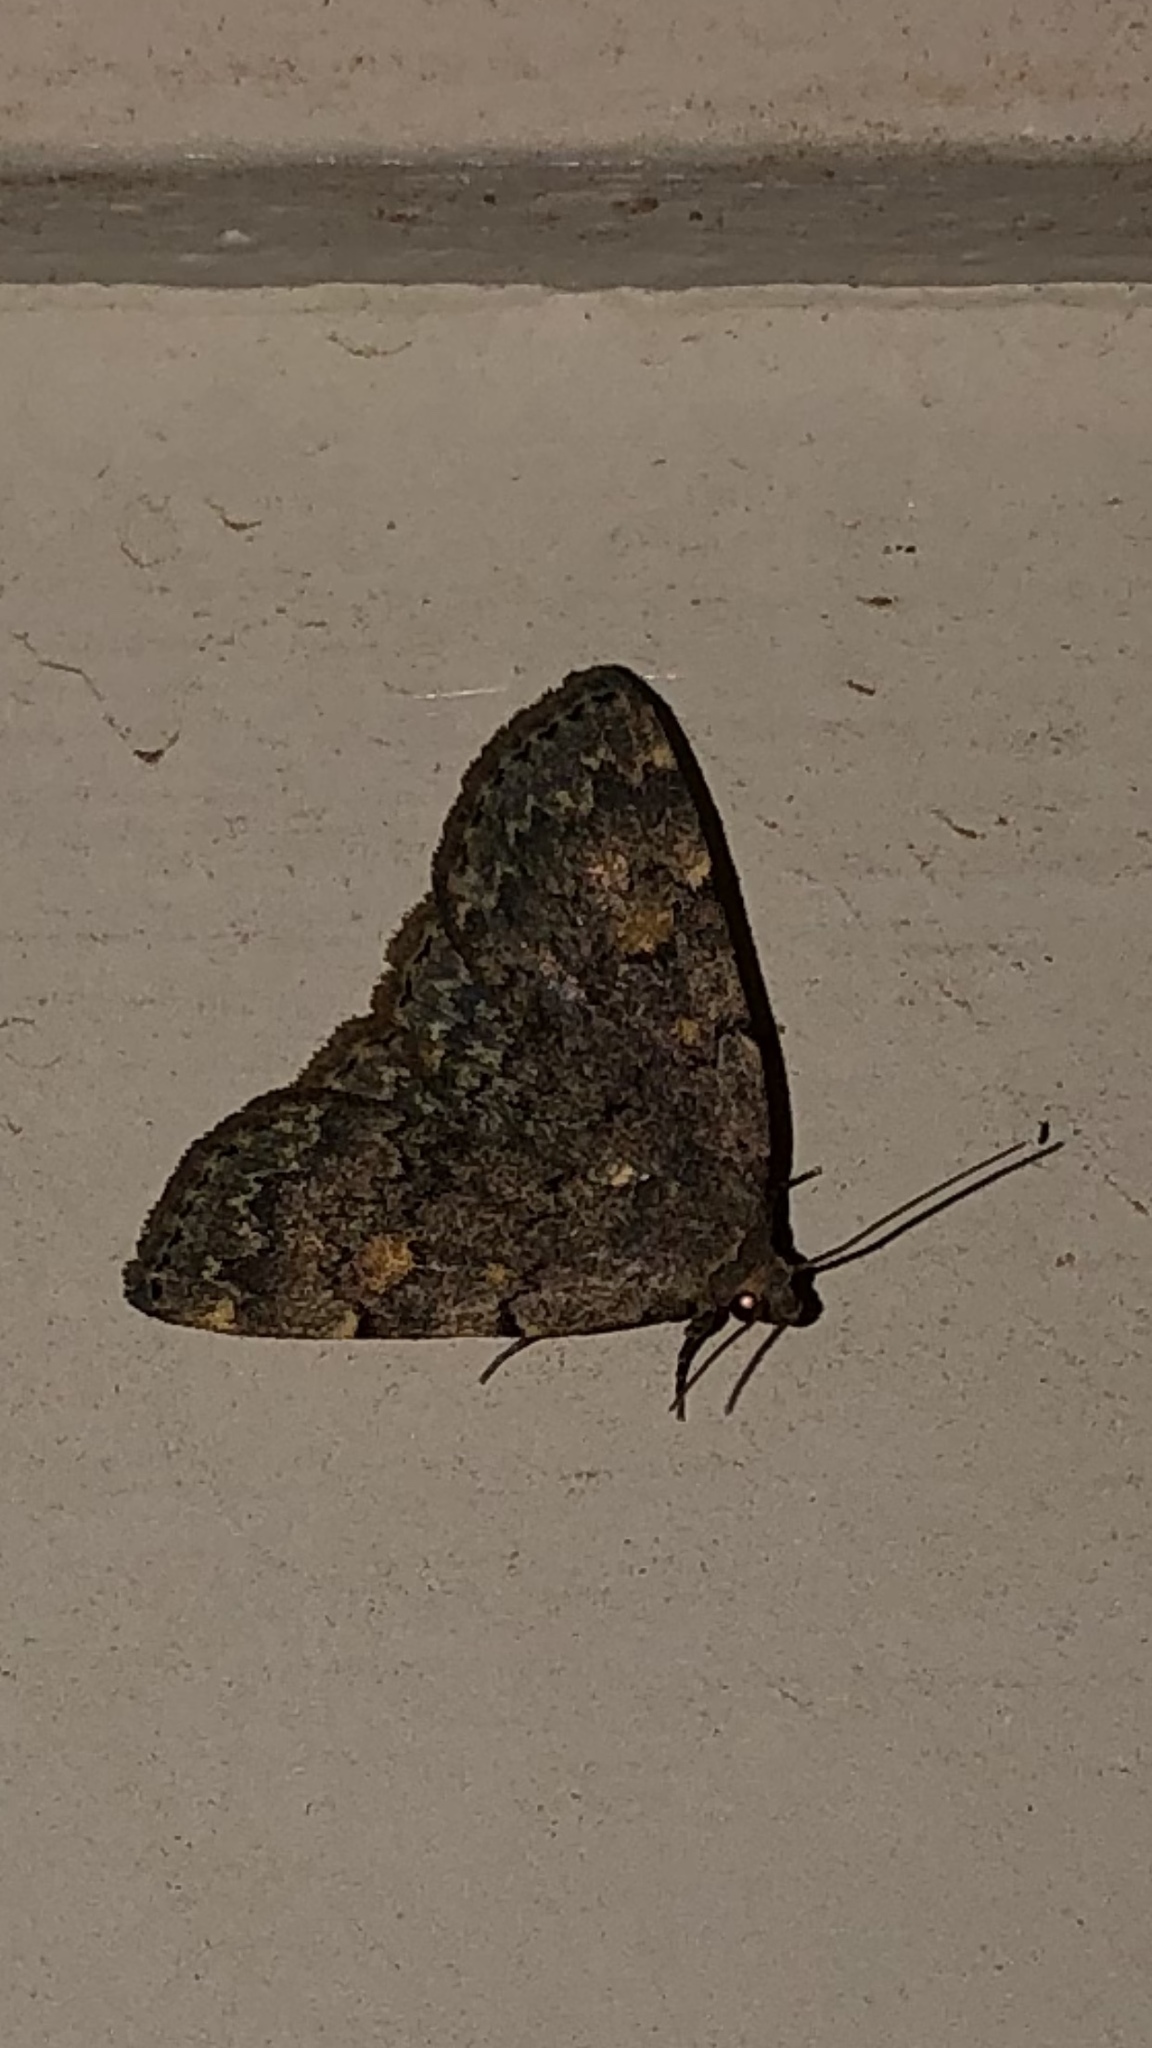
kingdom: Animalia
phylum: Arthropoda
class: Insecta
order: Lepidoptera
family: Erebidae
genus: Idia
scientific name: Idia aemula
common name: Common idia moth
